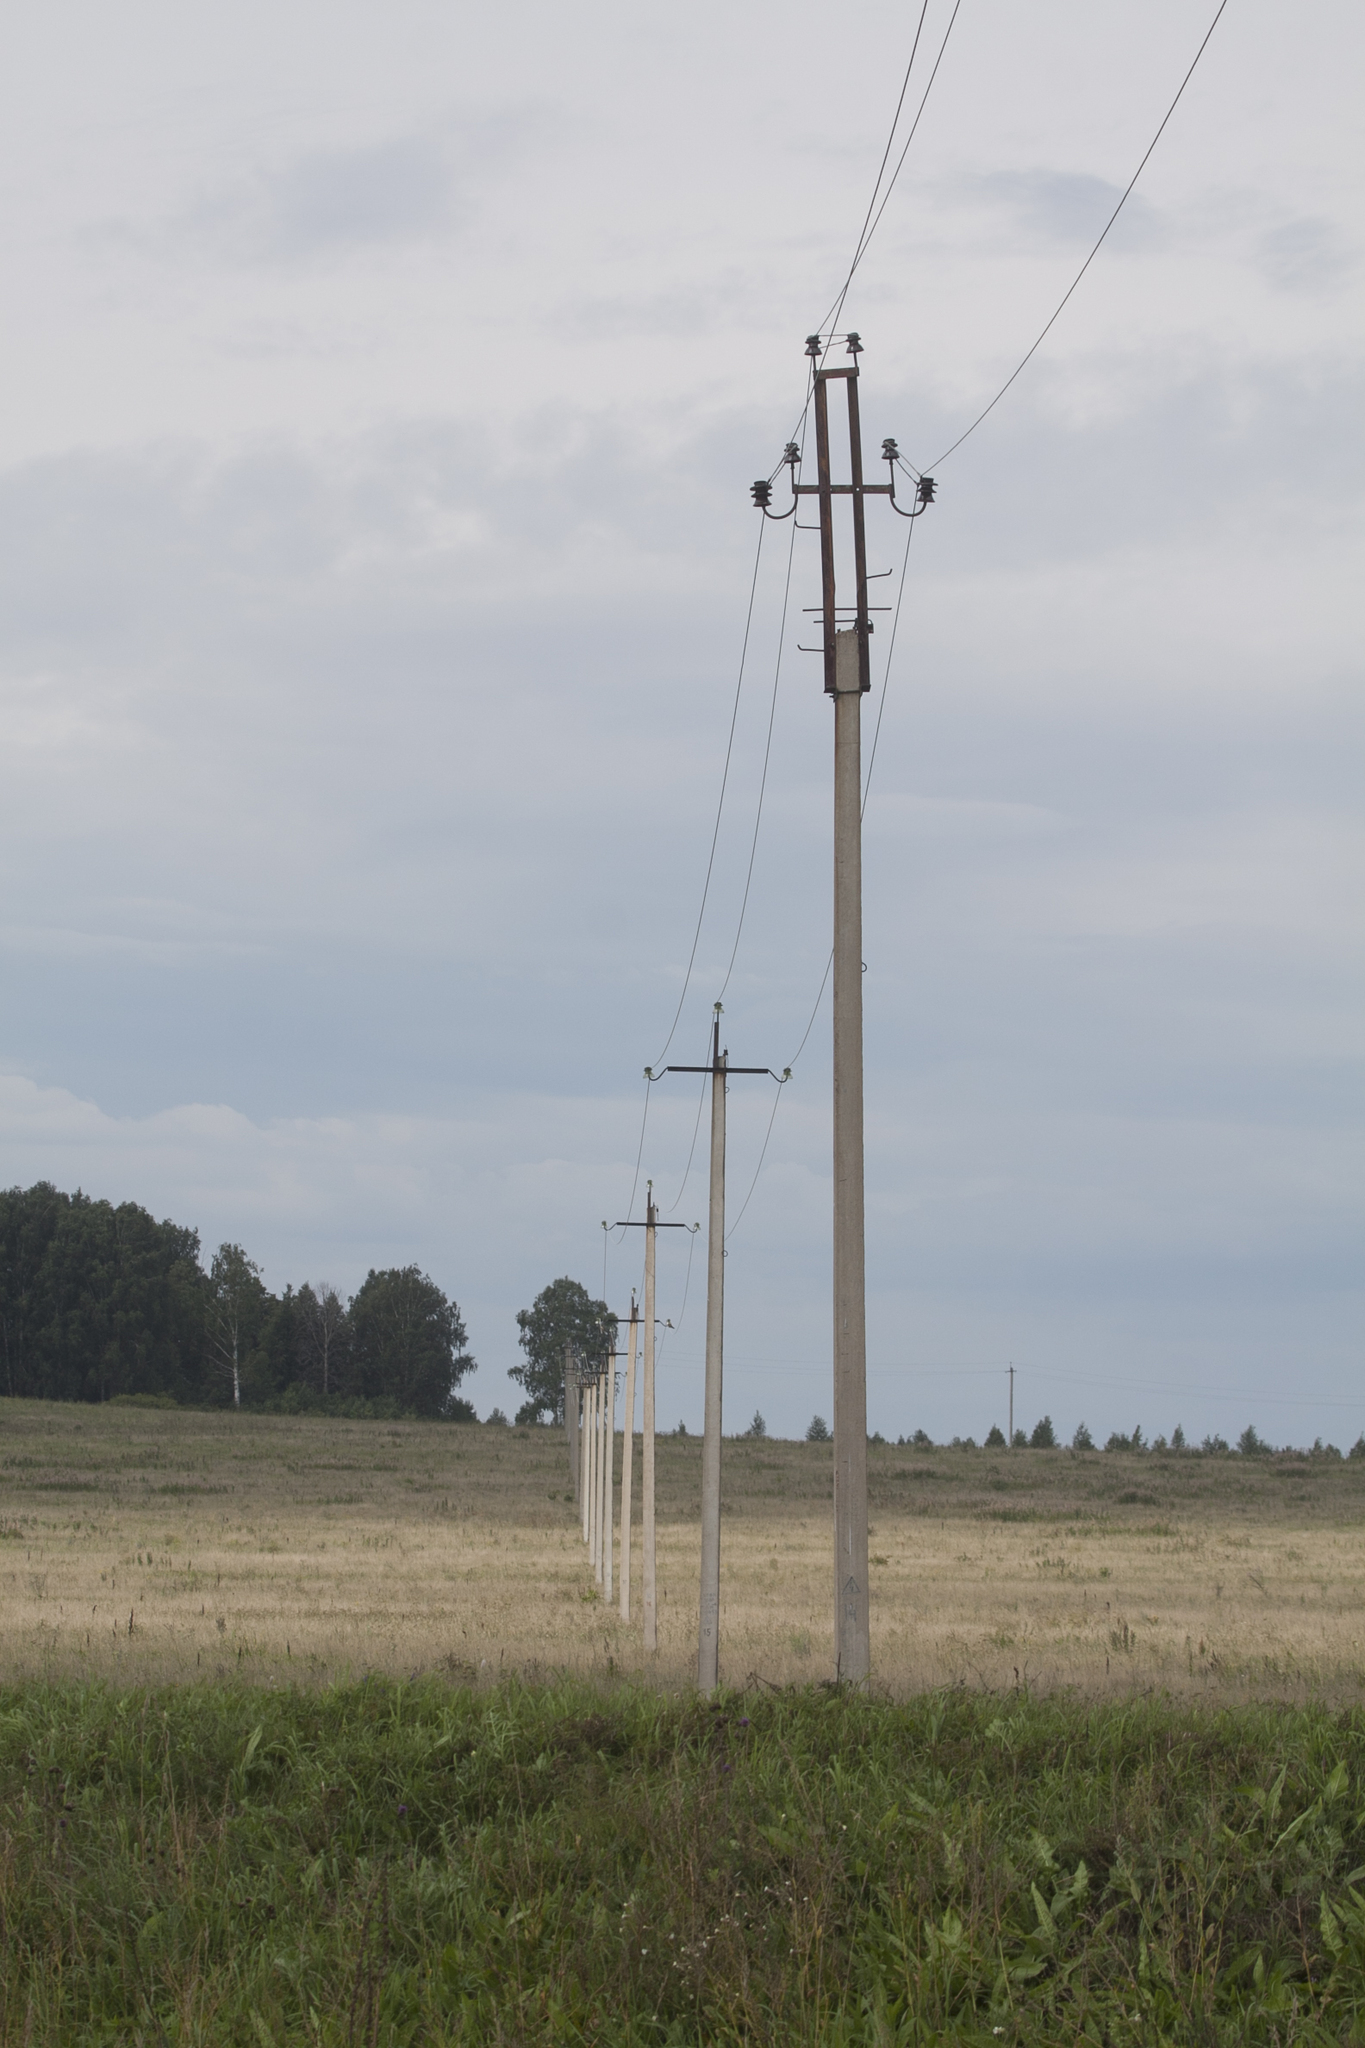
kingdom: Animalia
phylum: Chordata
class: Aves
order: Falconiformes
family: Falconidae
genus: Falco
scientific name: Falco vespertinus
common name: Red-footed falcon
